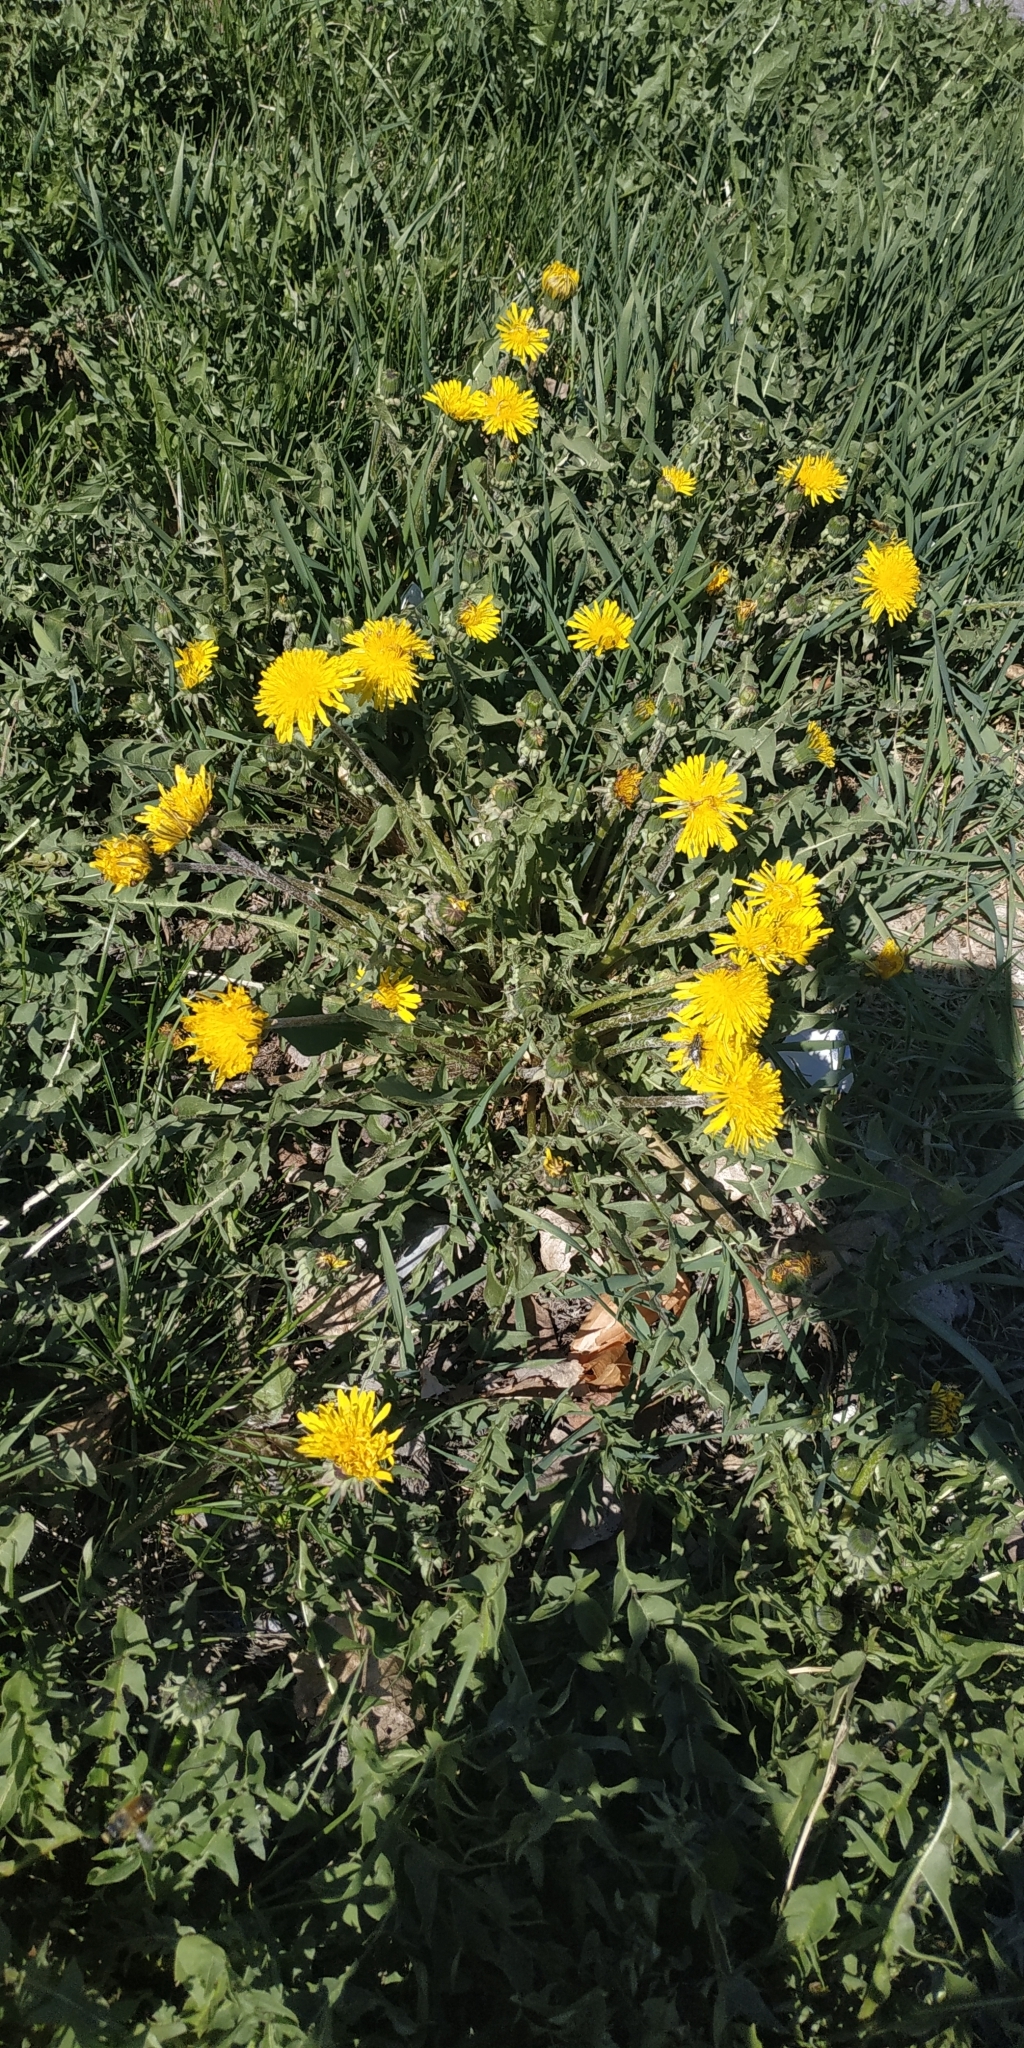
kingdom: Plantae
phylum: Tracheophyta
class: Magnoliopsida
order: Asterales
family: Asteraceae
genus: Taraxacum
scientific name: Taraxacum officinale
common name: Common dandelion
